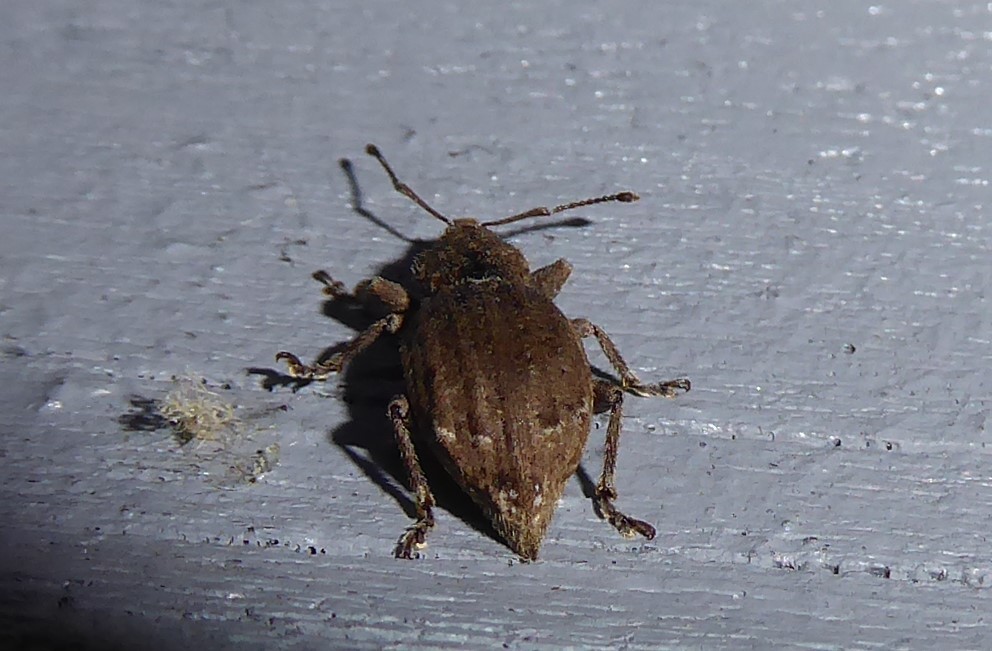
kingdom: Animalia
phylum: Arthropoda
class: Insecta
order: Coleoptera
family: Curculionidae
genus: Chalepistes
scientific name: Chalepistes rubidus
